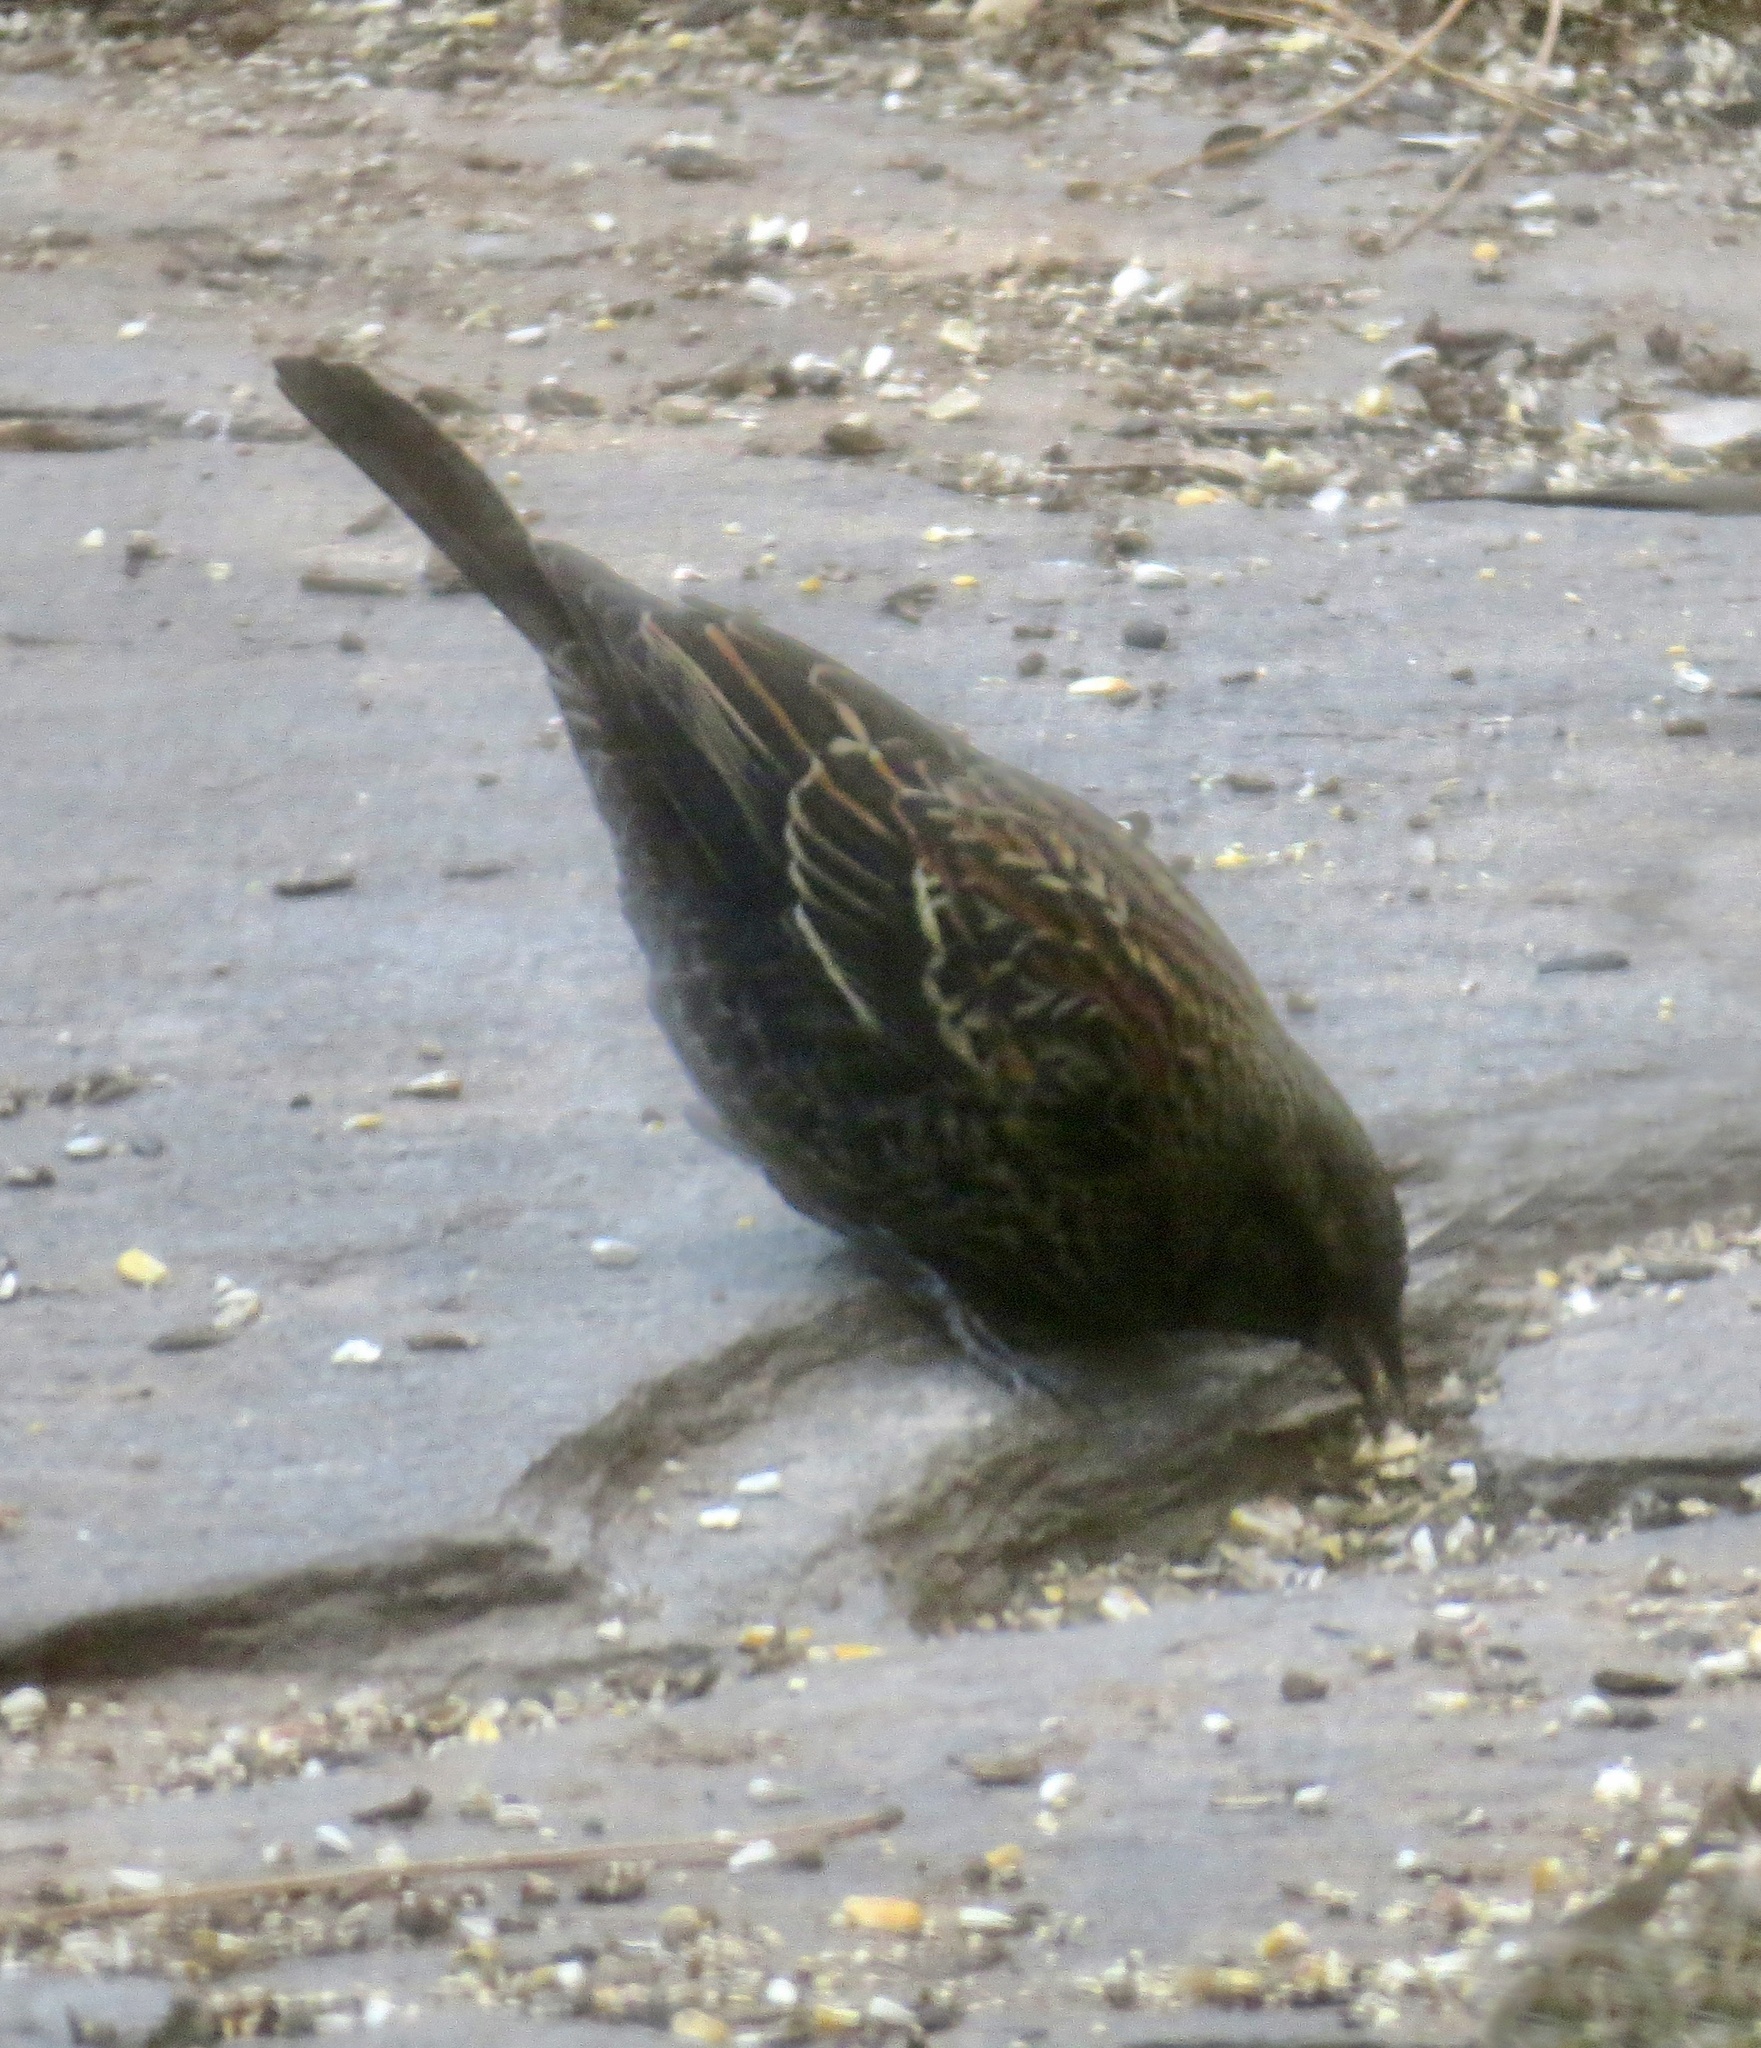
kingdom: Animalia
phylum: Chordata
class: Aves
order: Passeriformes
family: Icteridae
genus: Agelaius
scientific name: Agelaius phoeniceus
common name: Red-winged blackbird
